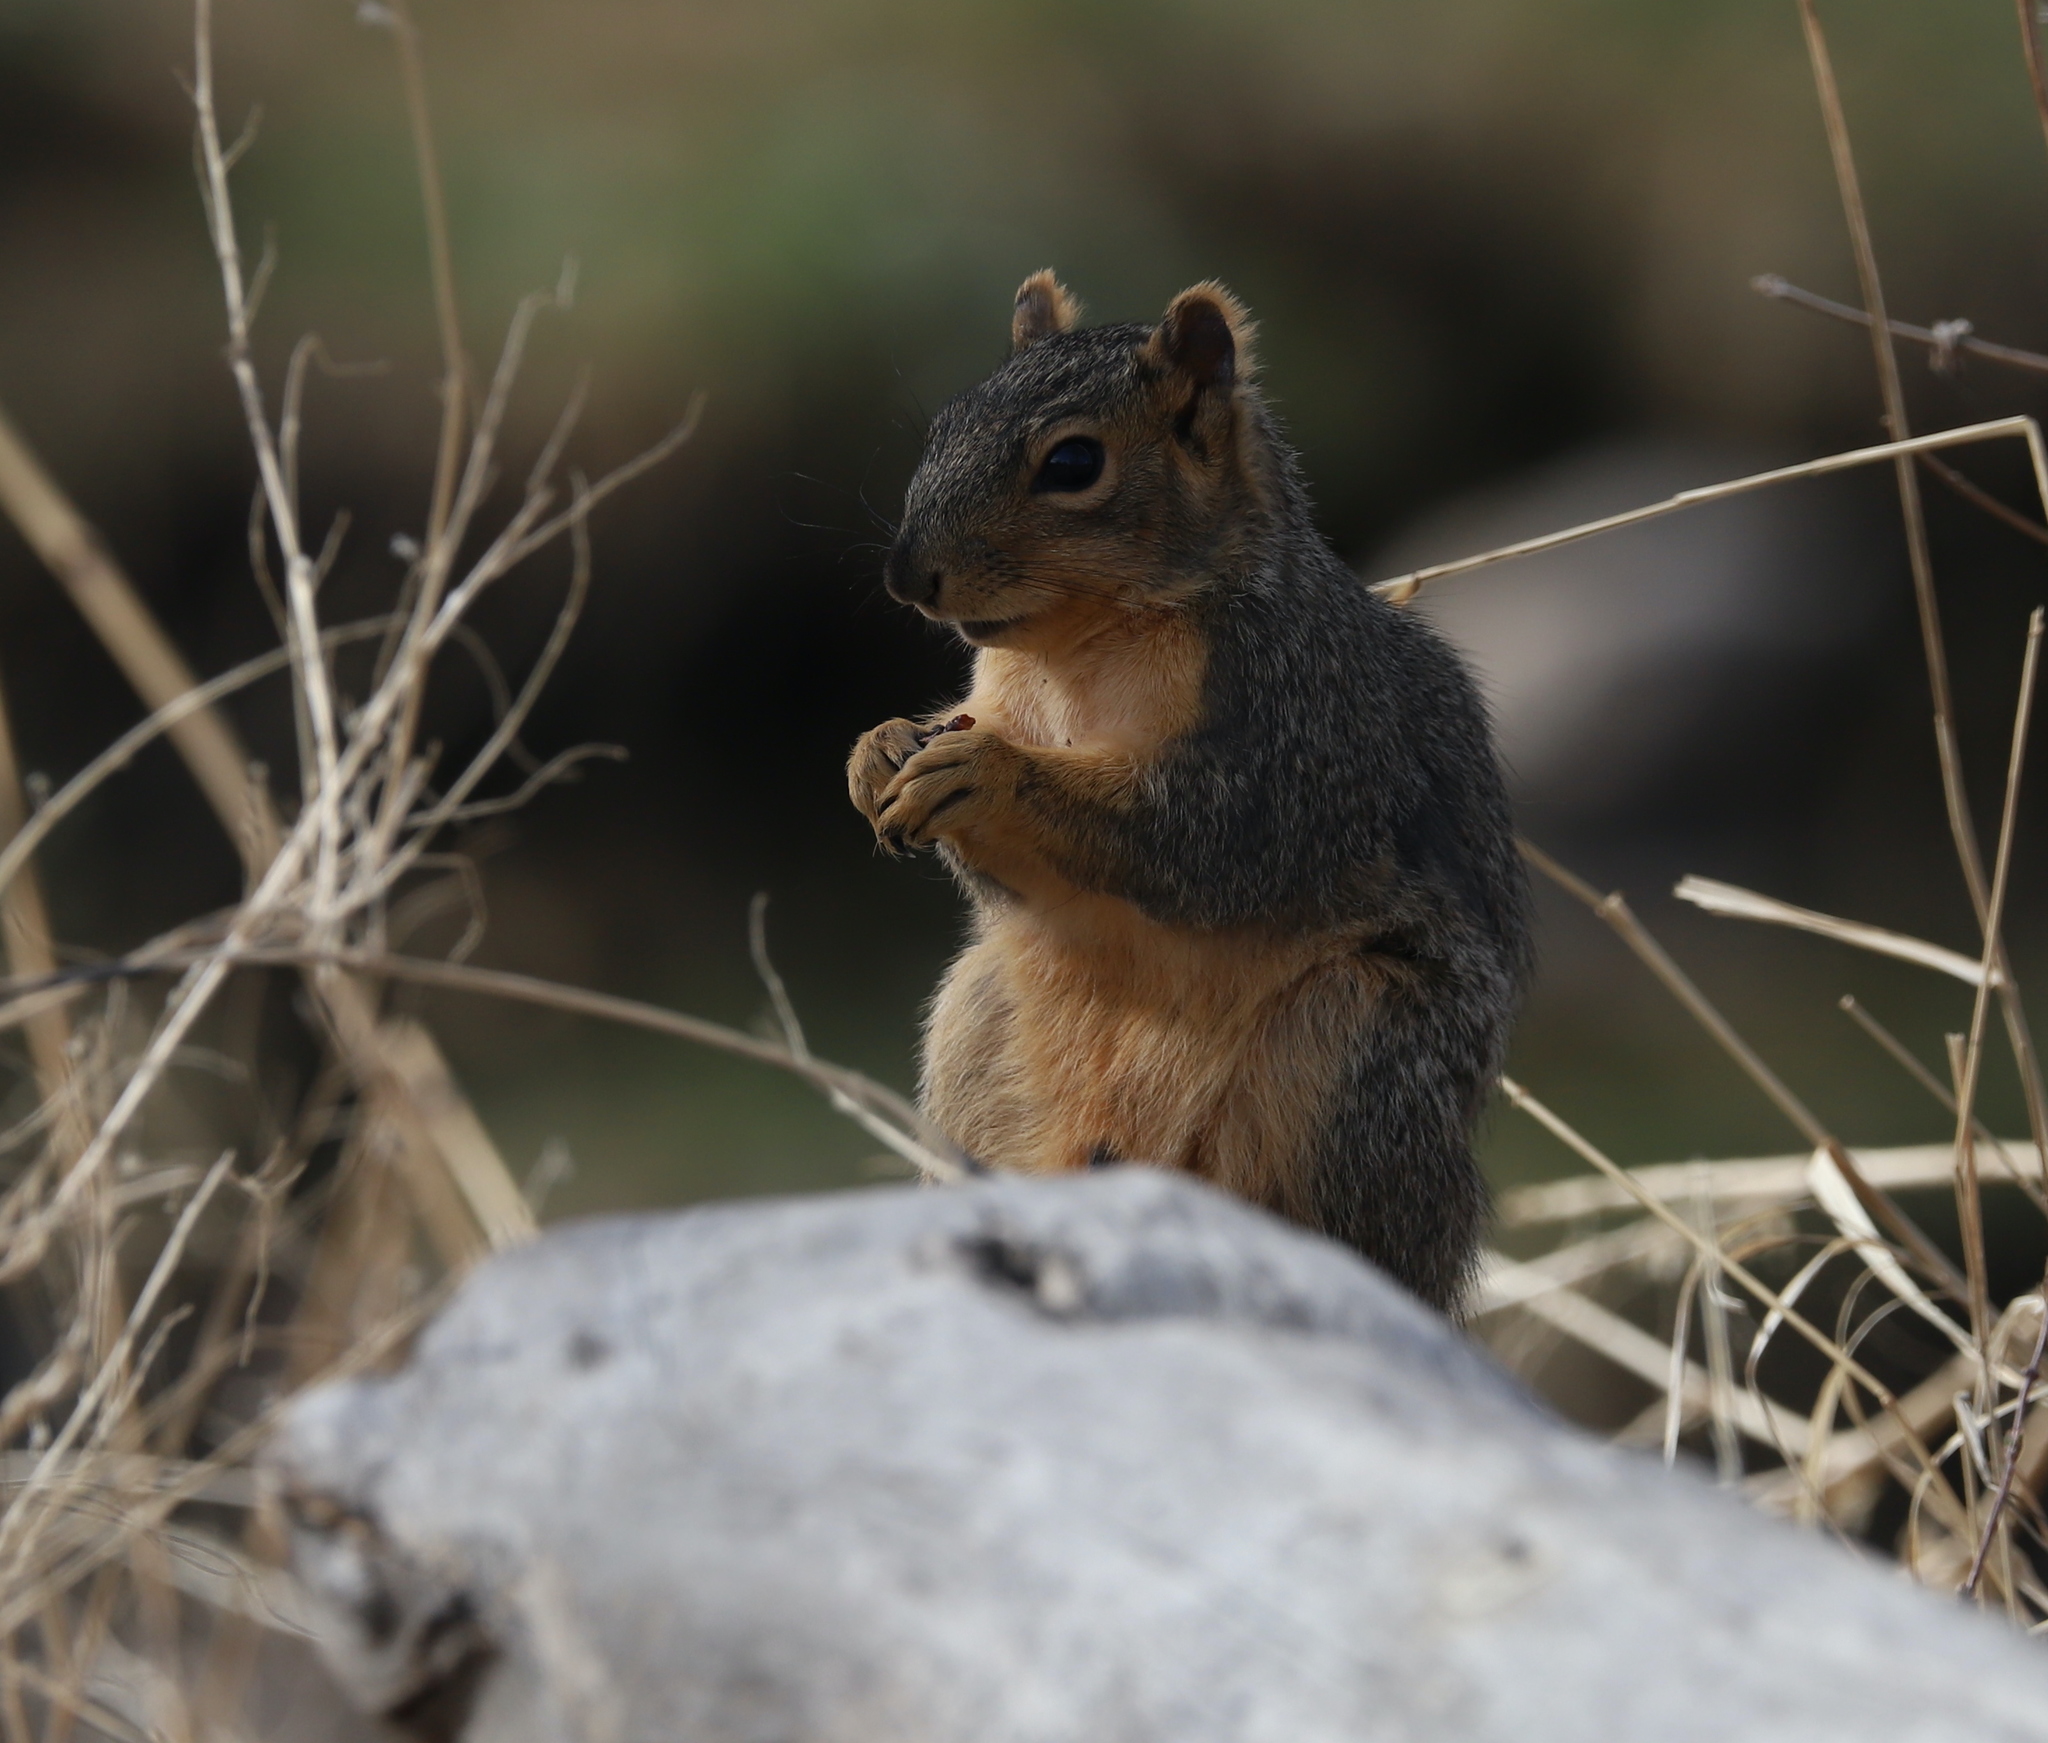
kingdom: Animalia
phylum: Chordata
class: Mammalia
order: Rodentia
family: Sciuridae
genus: Sciurus
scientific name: Sciurus niger
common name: Fox squirrel
